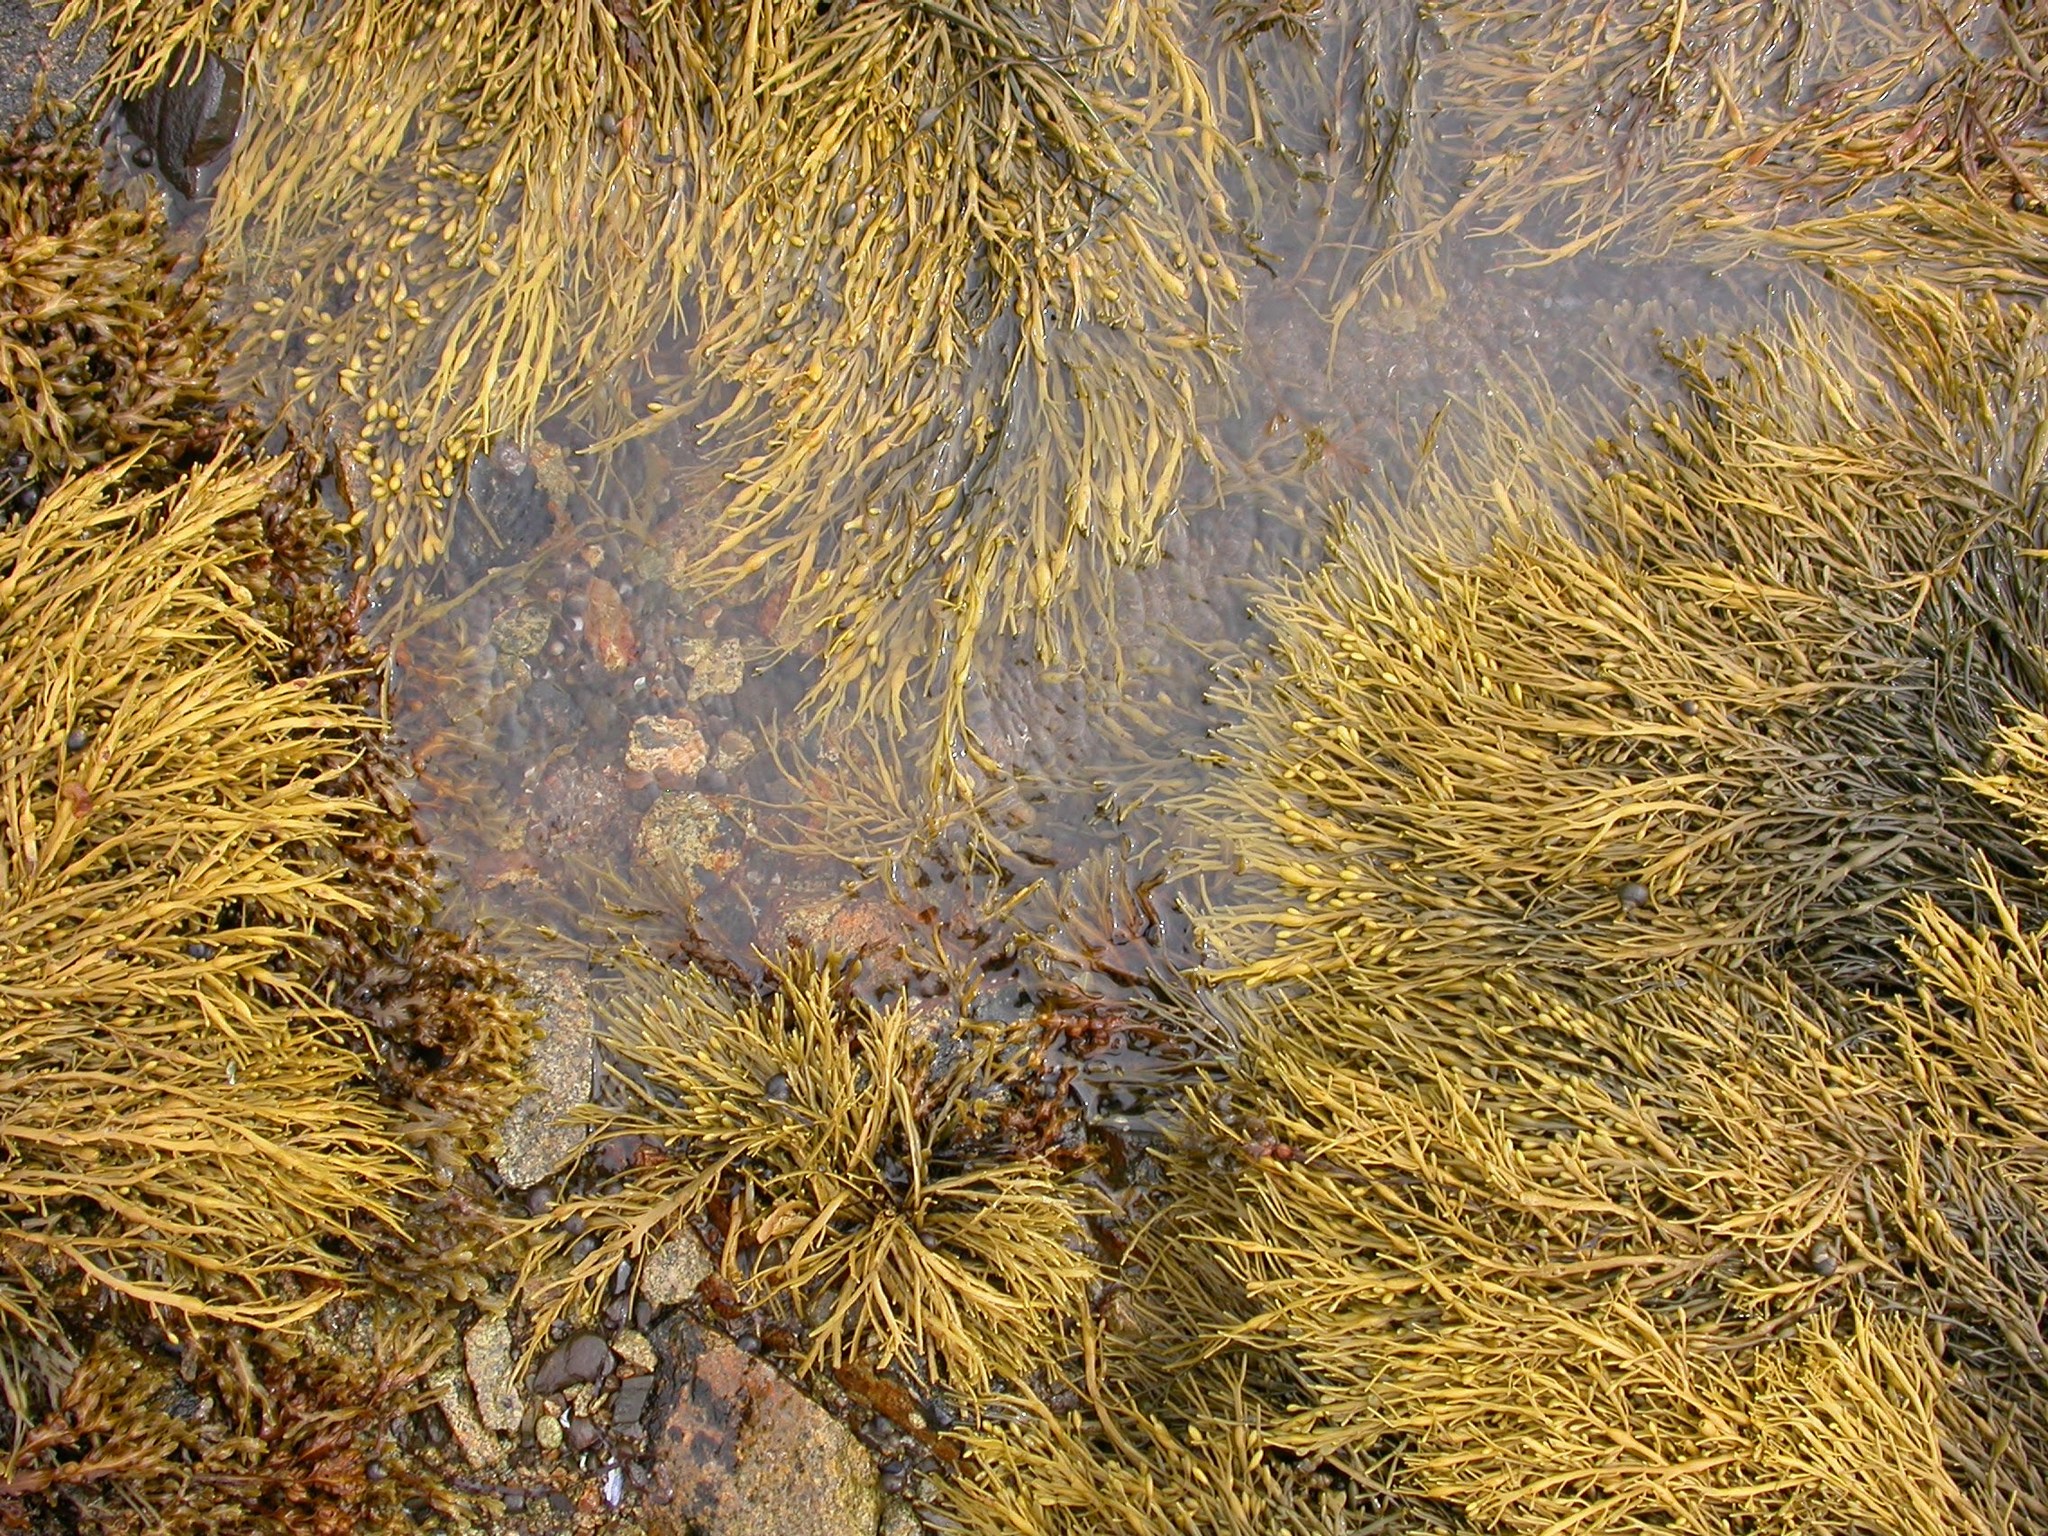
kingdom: Chromista
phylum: Ochrophyta
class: Phaeophyceae
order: Fucales
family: Fucaceae
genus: Ascophyllum
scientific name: Ascophyllum nodosum
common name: Knotted wrack
